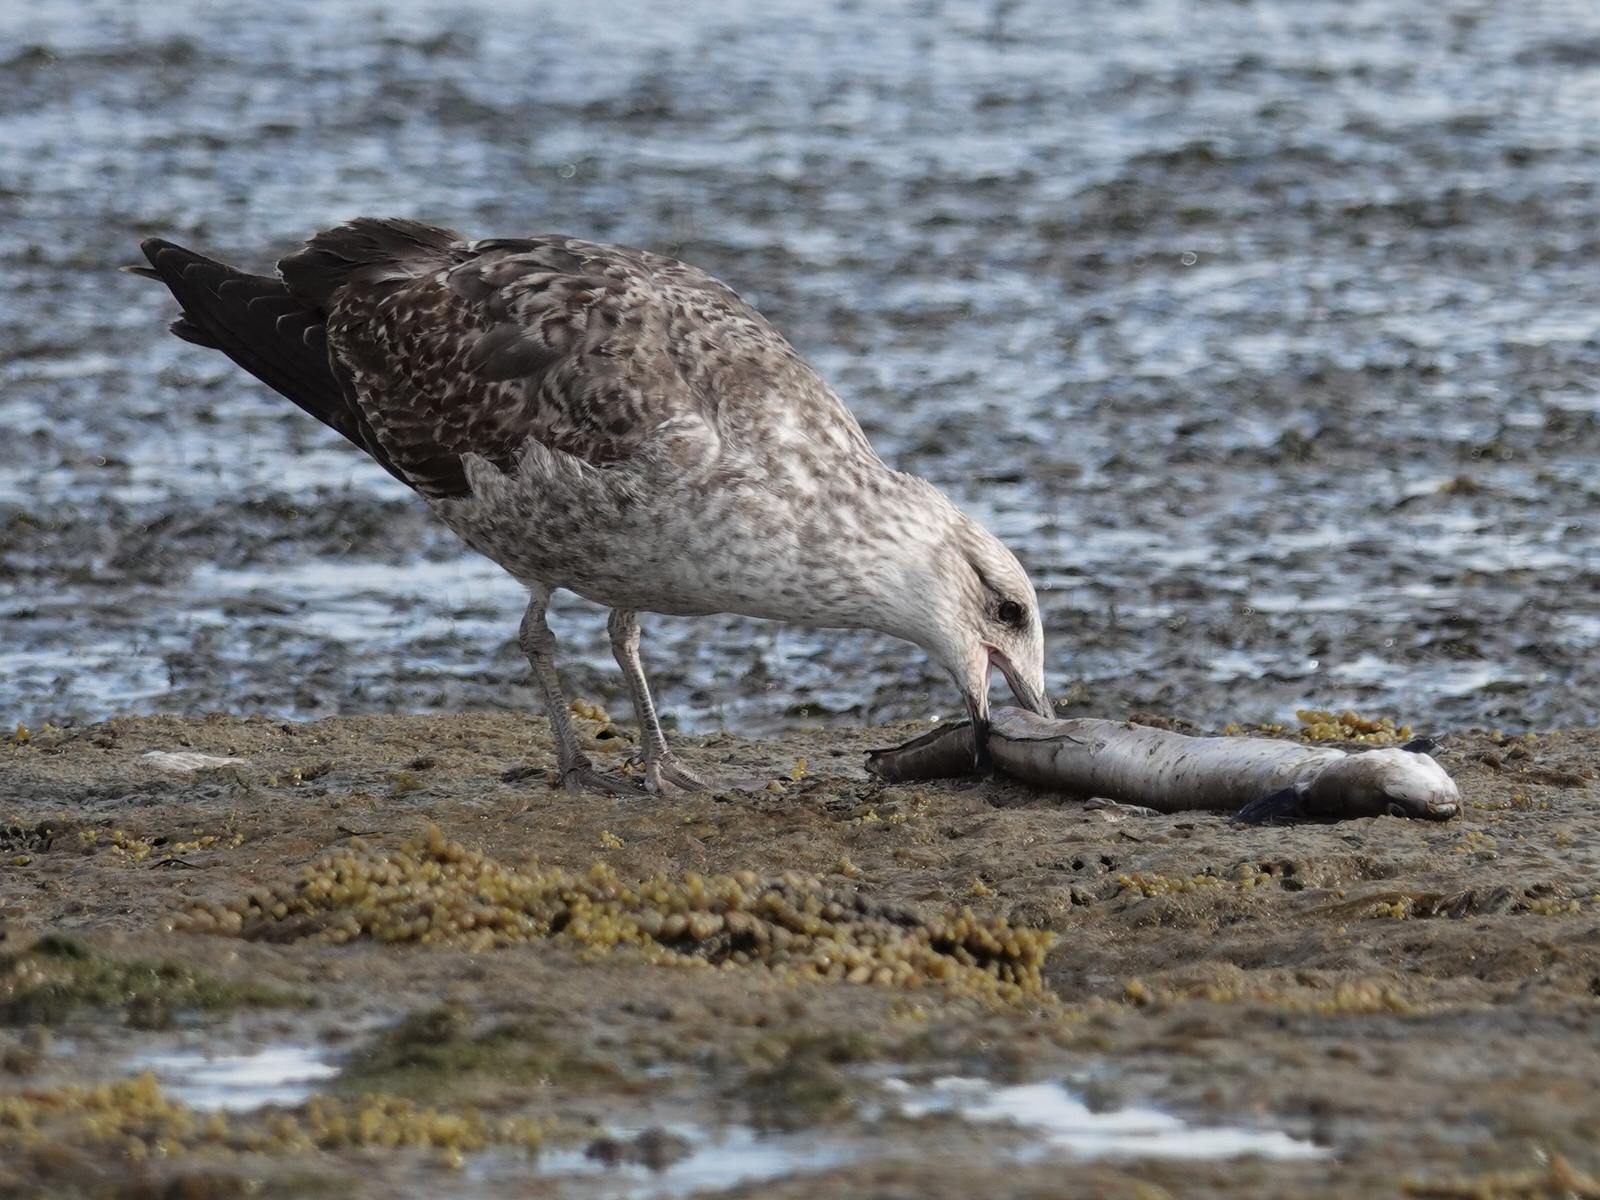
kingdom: Animalia
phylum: Chordata
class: Aves
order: Charadriiformes
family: Laridae
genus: Larus
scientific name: Larus dominicanus
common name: Kelp gull
